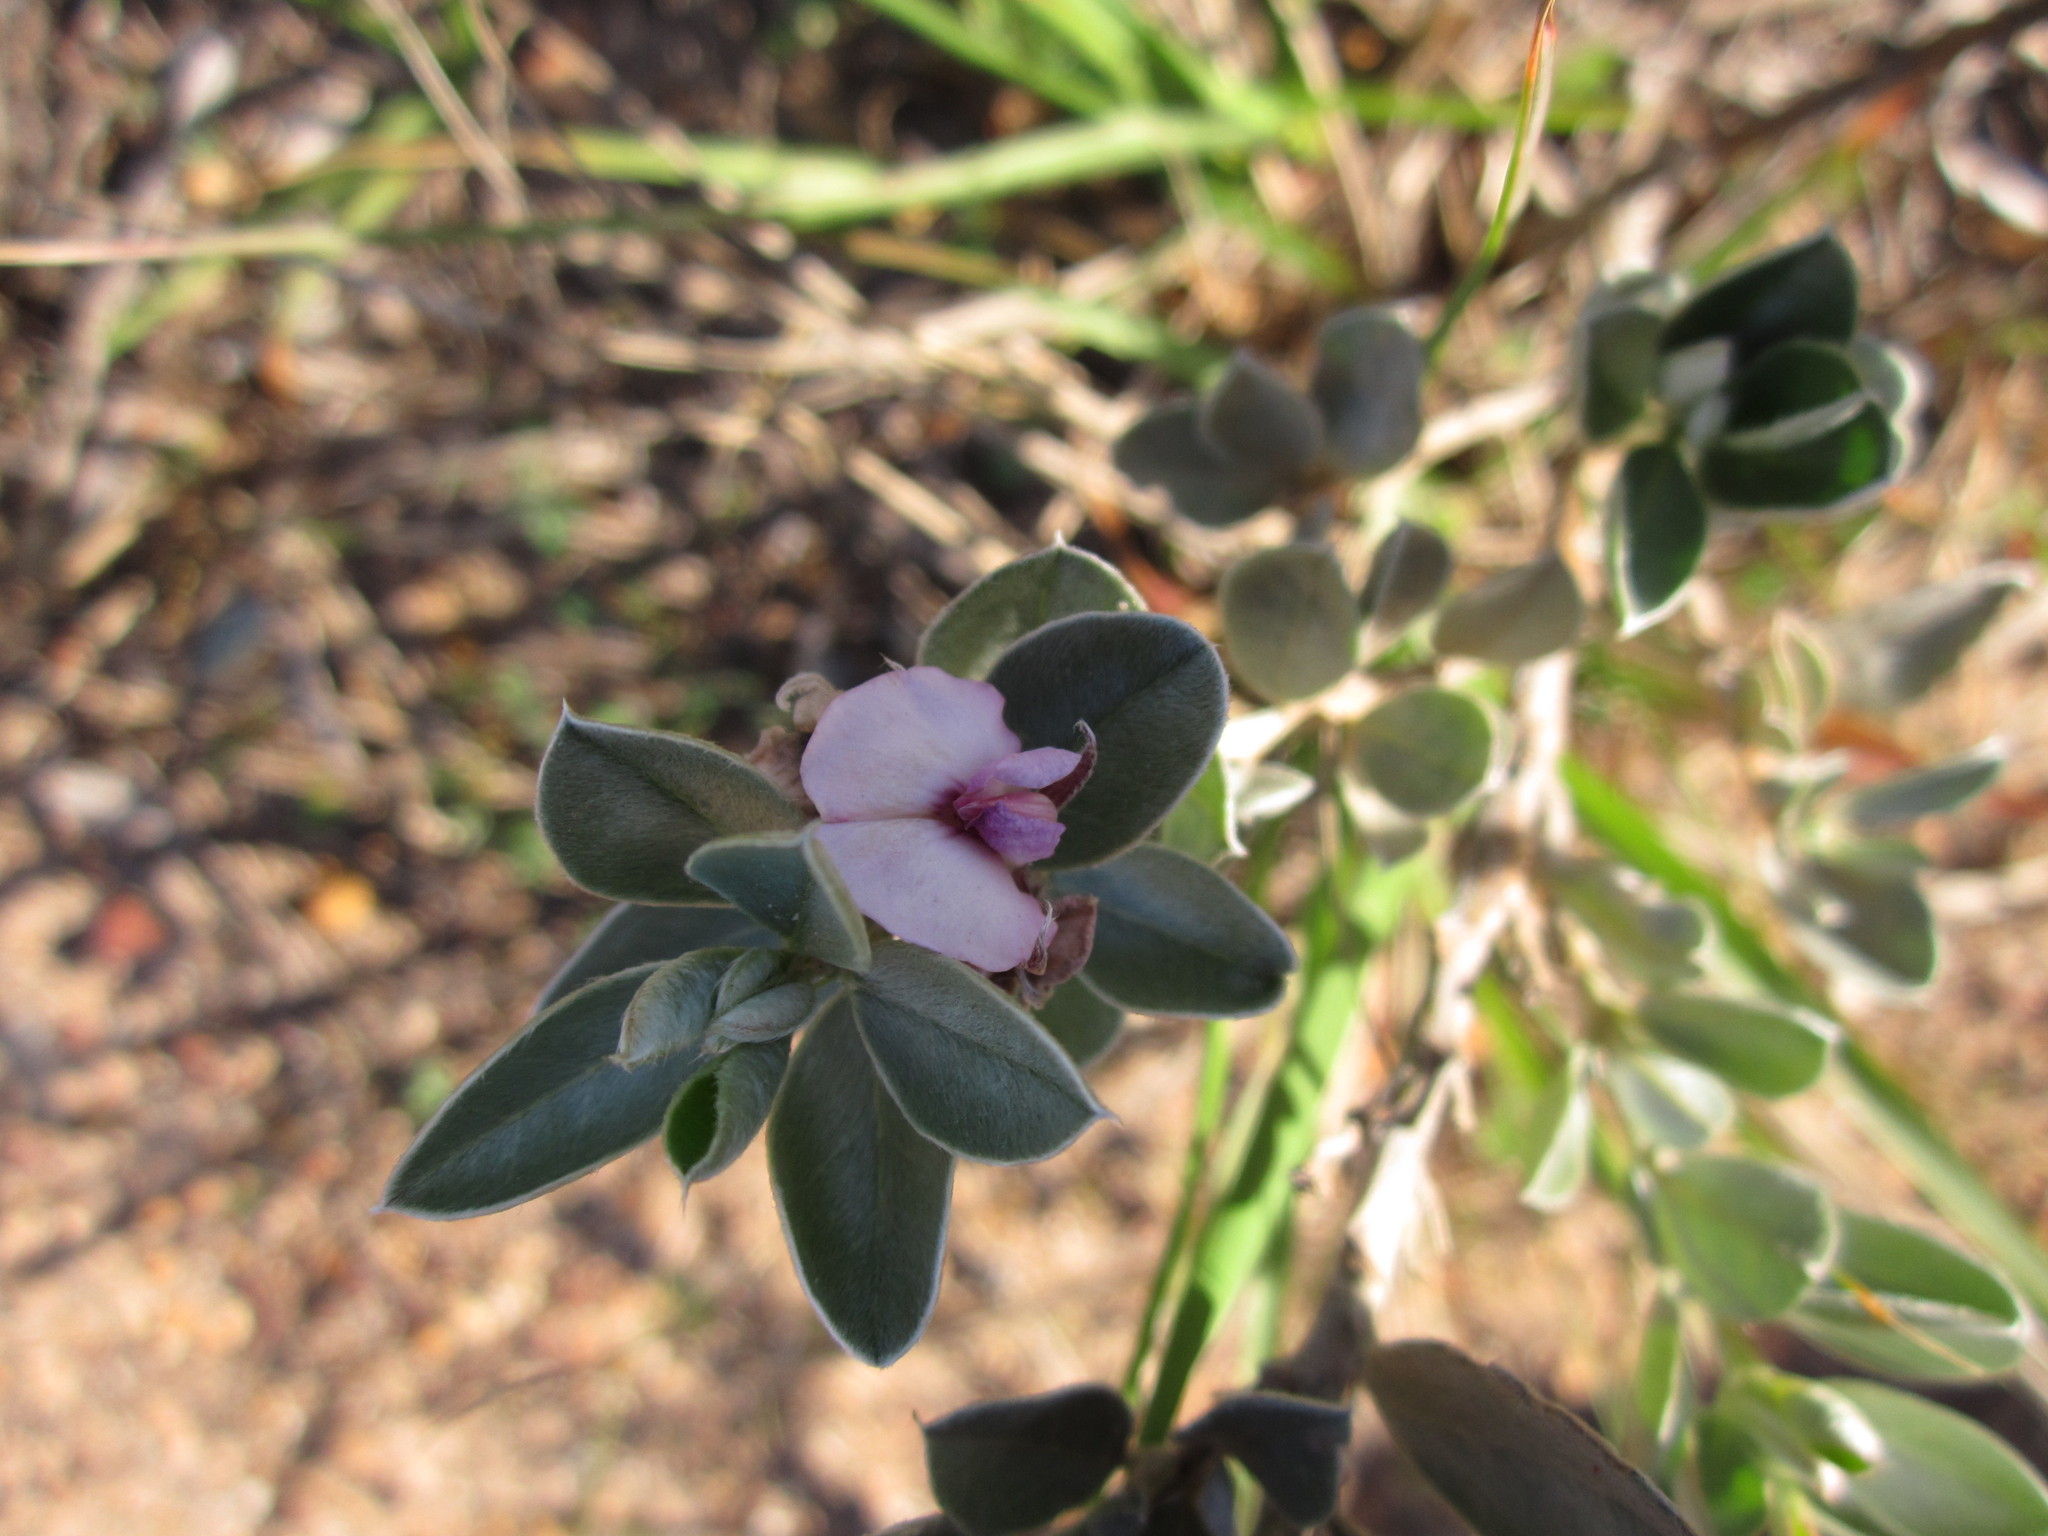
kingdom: Plantae
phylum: Tracheophyta
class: Magnoliopsida
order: Fabales
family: Fabaceae
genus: Podalyria
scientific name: Podalyria sericea
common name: Silver podalyria
